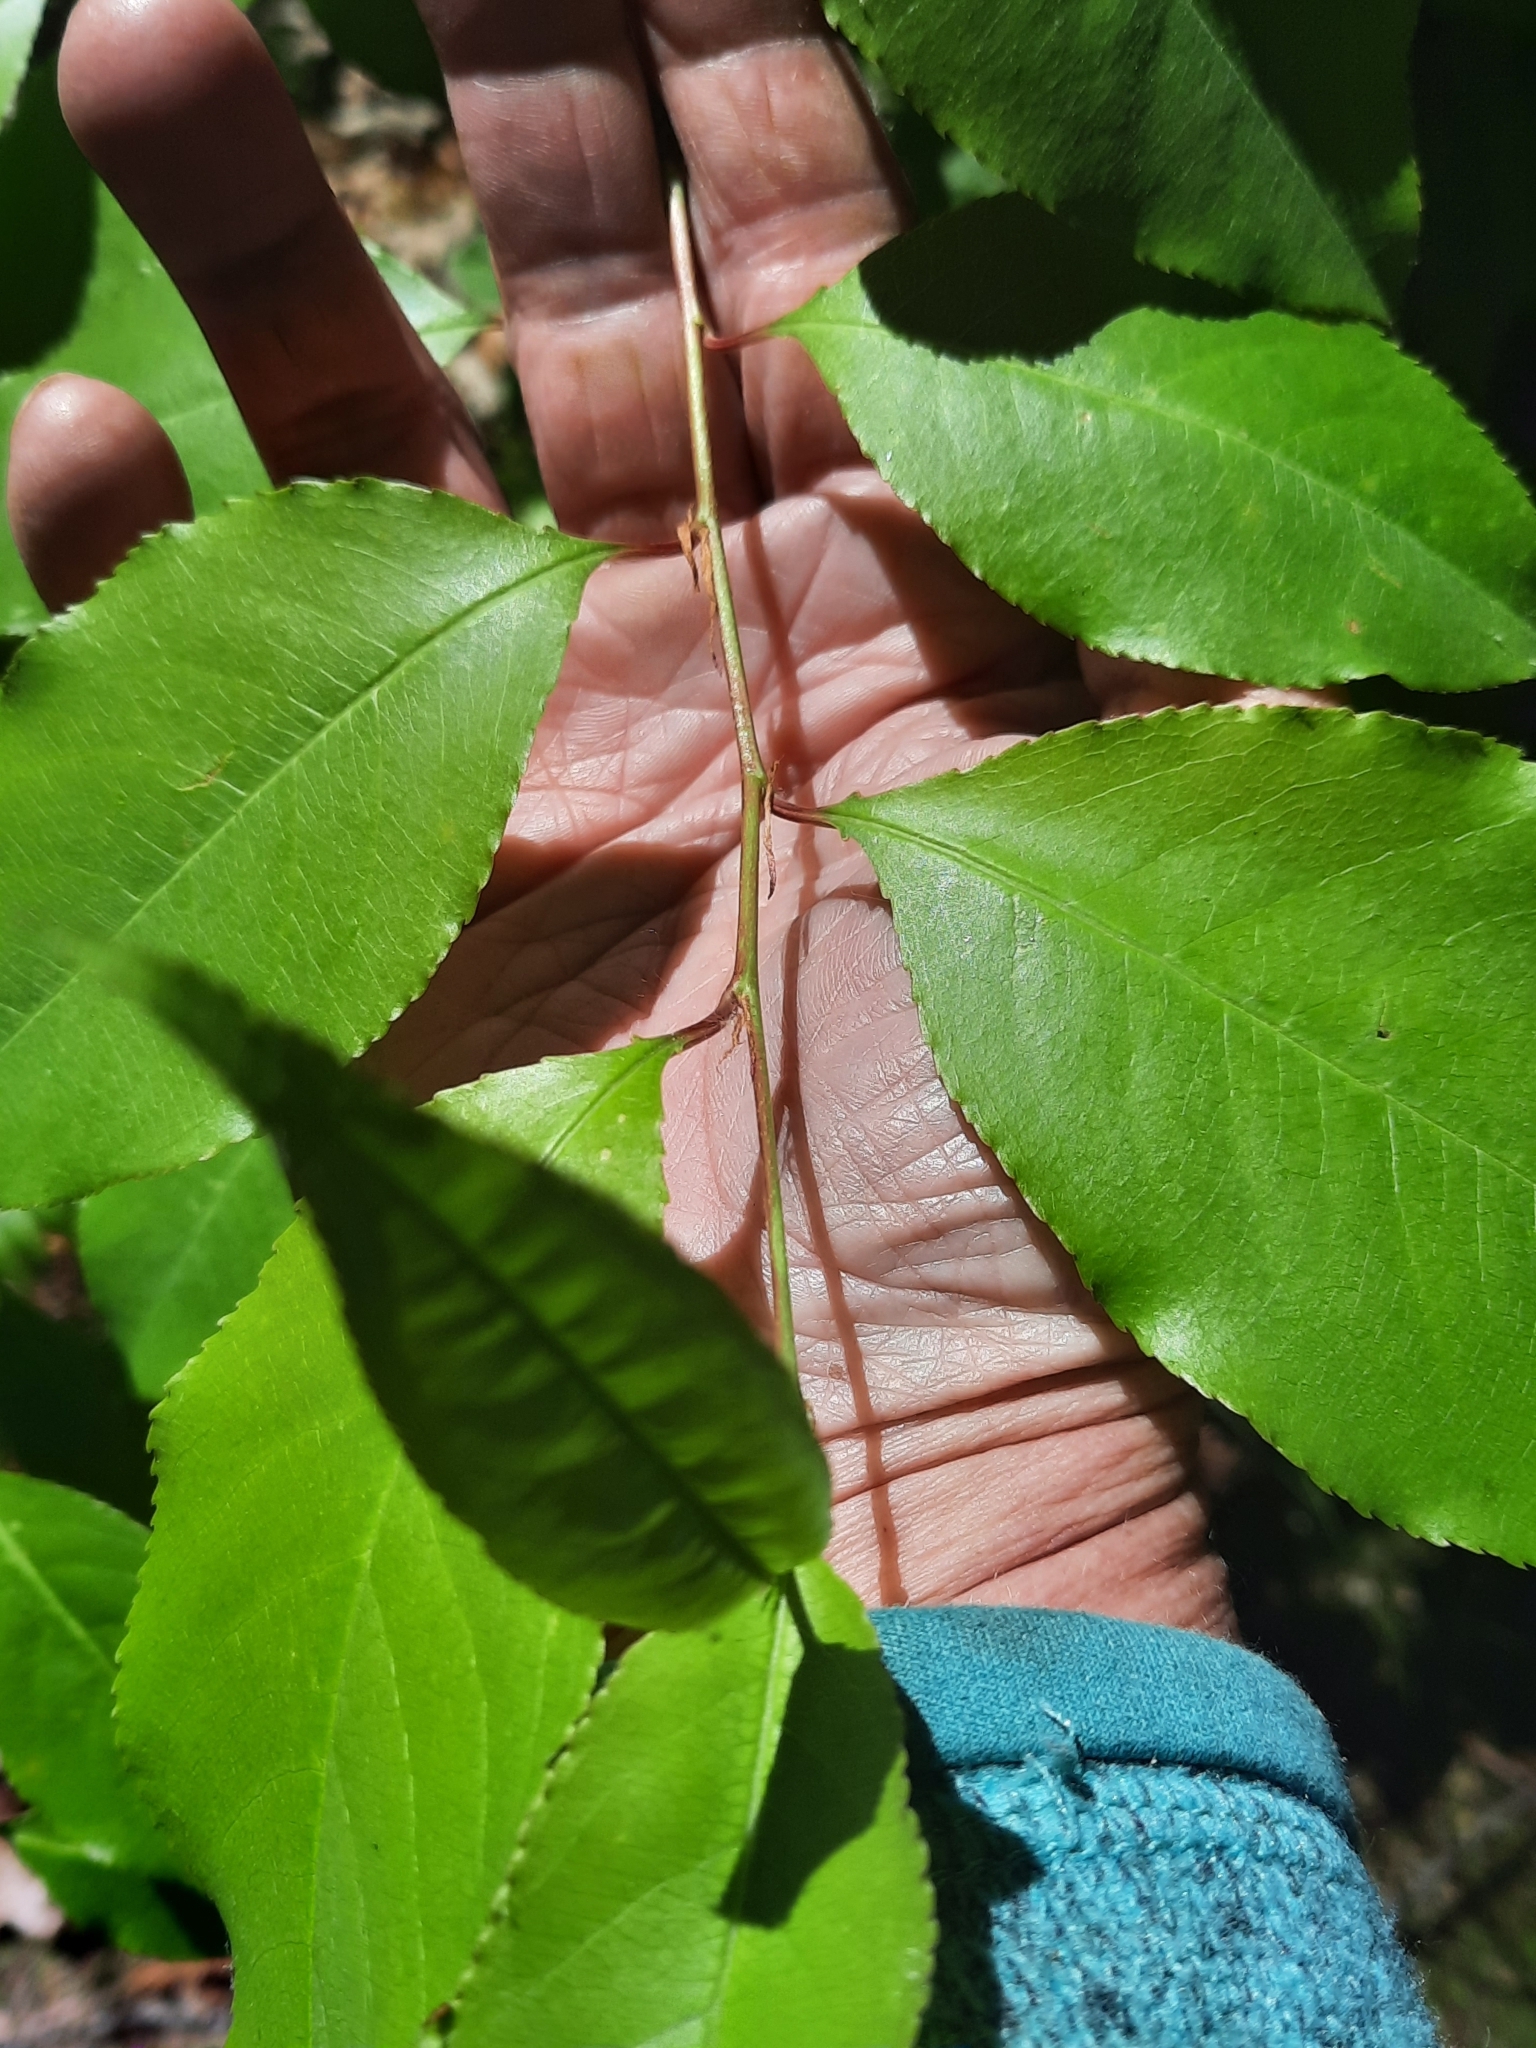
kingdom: Plantae
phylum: Tracheophyta
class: Magnoliopsida
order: Rosales
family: Rosaceae
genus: Prunus
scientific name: Prunus serotina
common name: Black cherry
